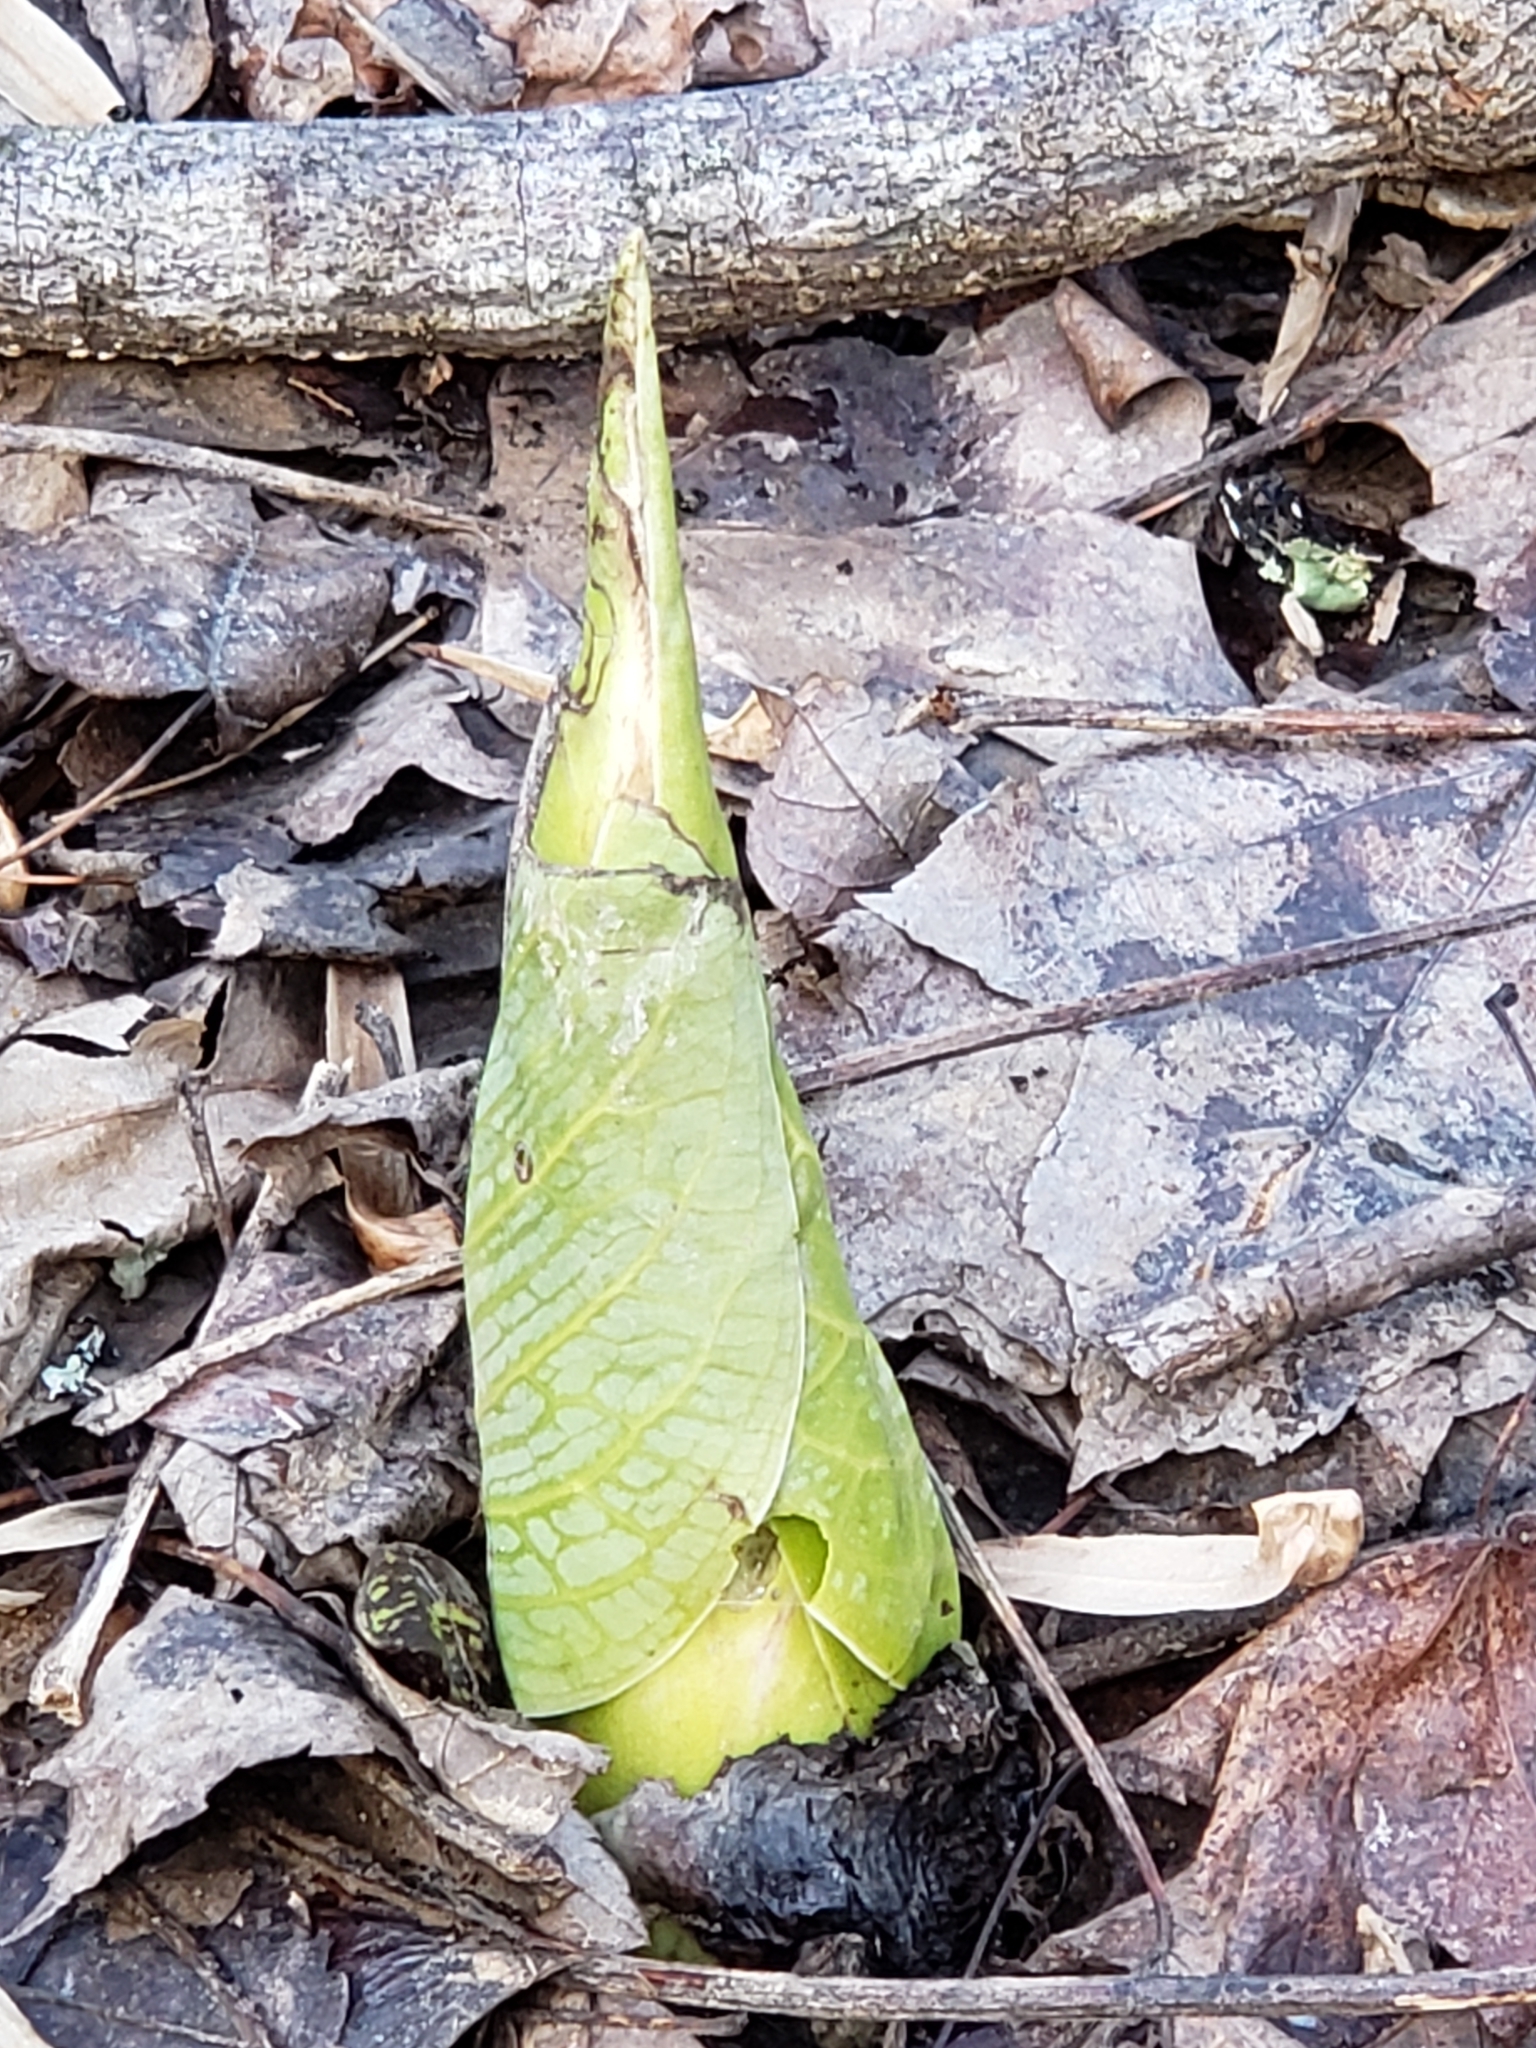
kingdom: Plantae
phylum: Tracheophyta
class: Liliopsida
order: Alismatales
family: Araceae
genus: Symplocarpus
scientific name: Symplocarpus foetidus
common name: Eastern skunk cabbage
